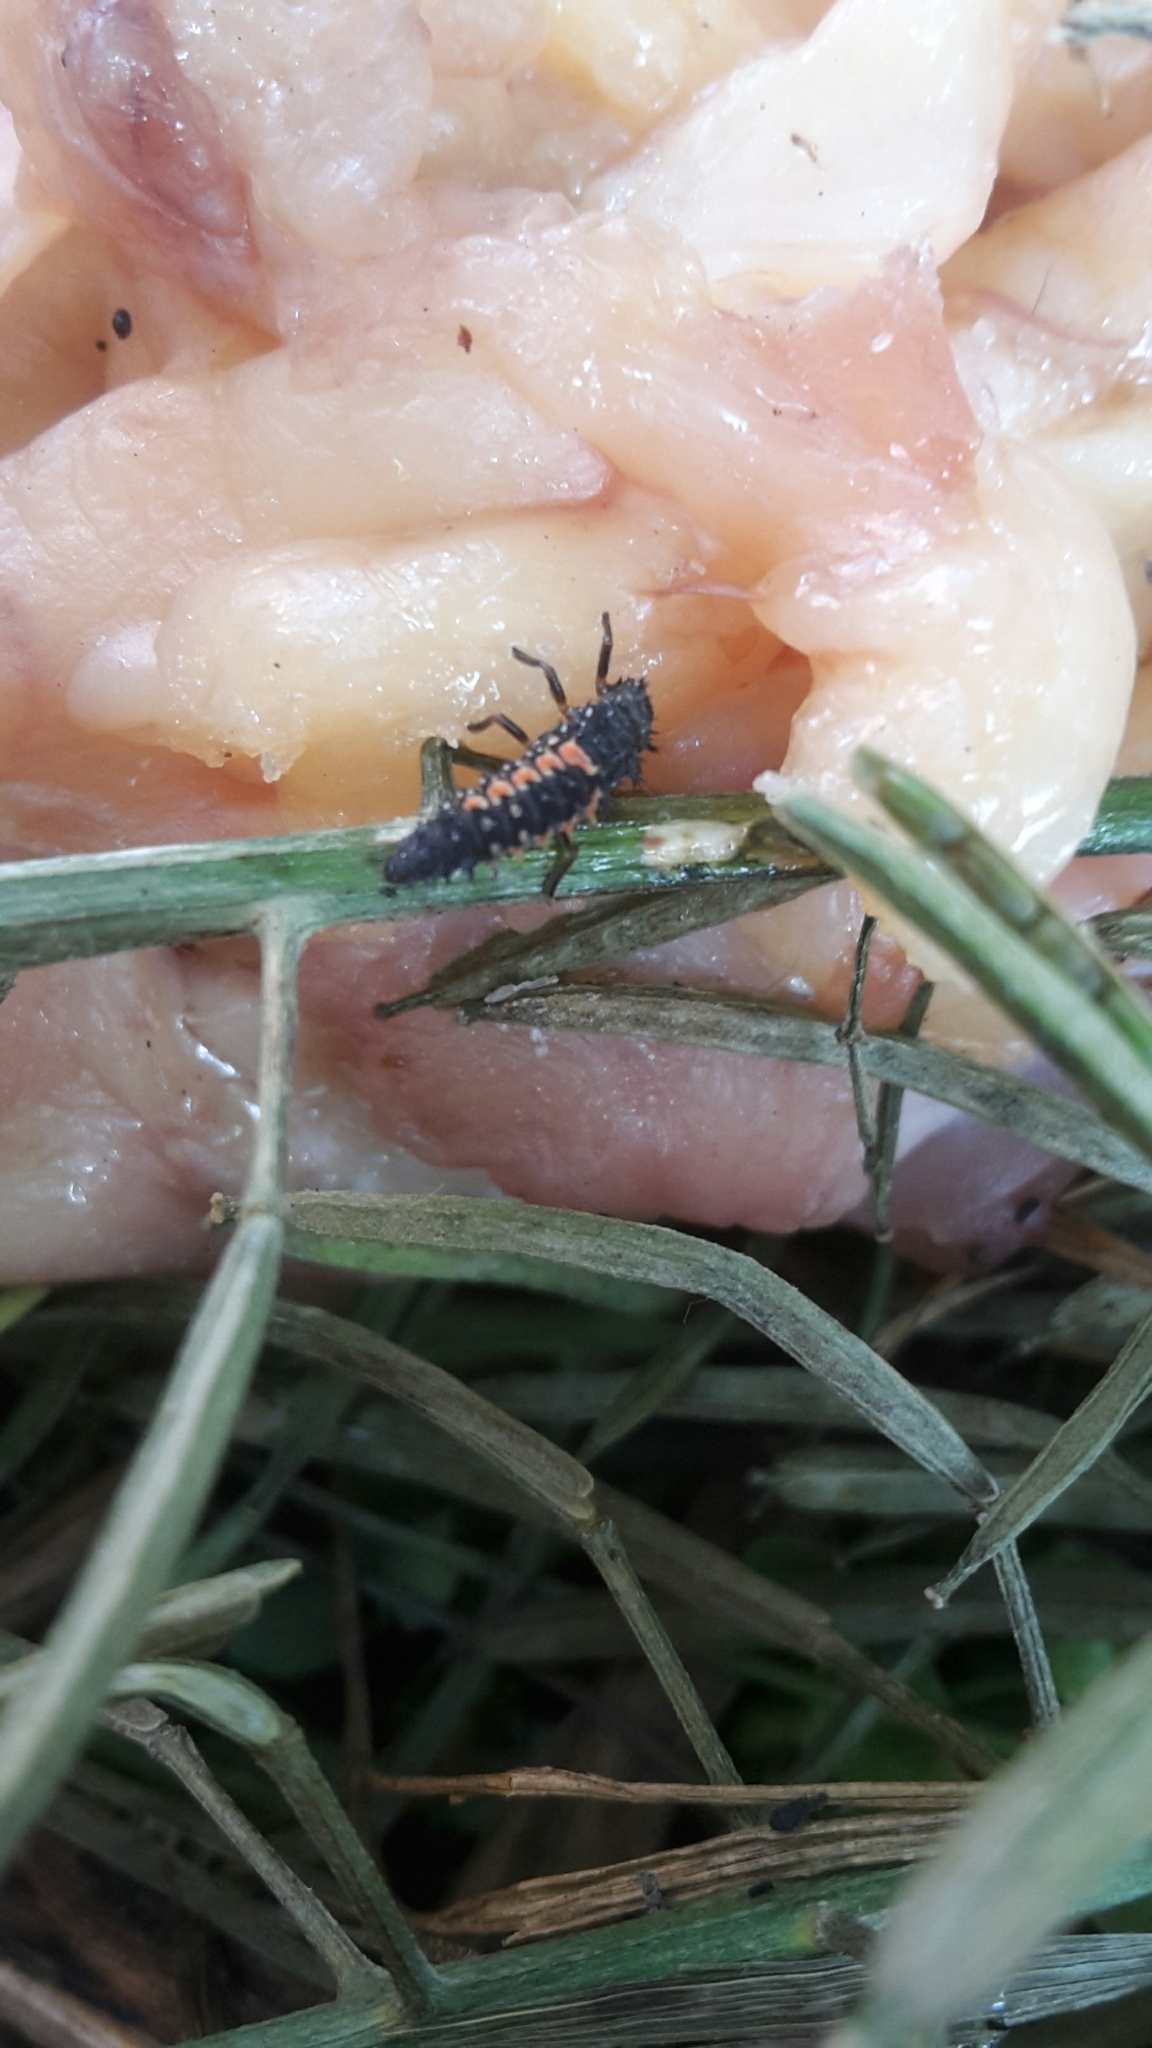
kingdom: Animalia
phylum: Arthropoda
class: Insecta
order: Coleoptera
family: Coccinellidae
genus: Harmonia
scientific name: Harmonia axyridis
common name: Harlequin ladybird
